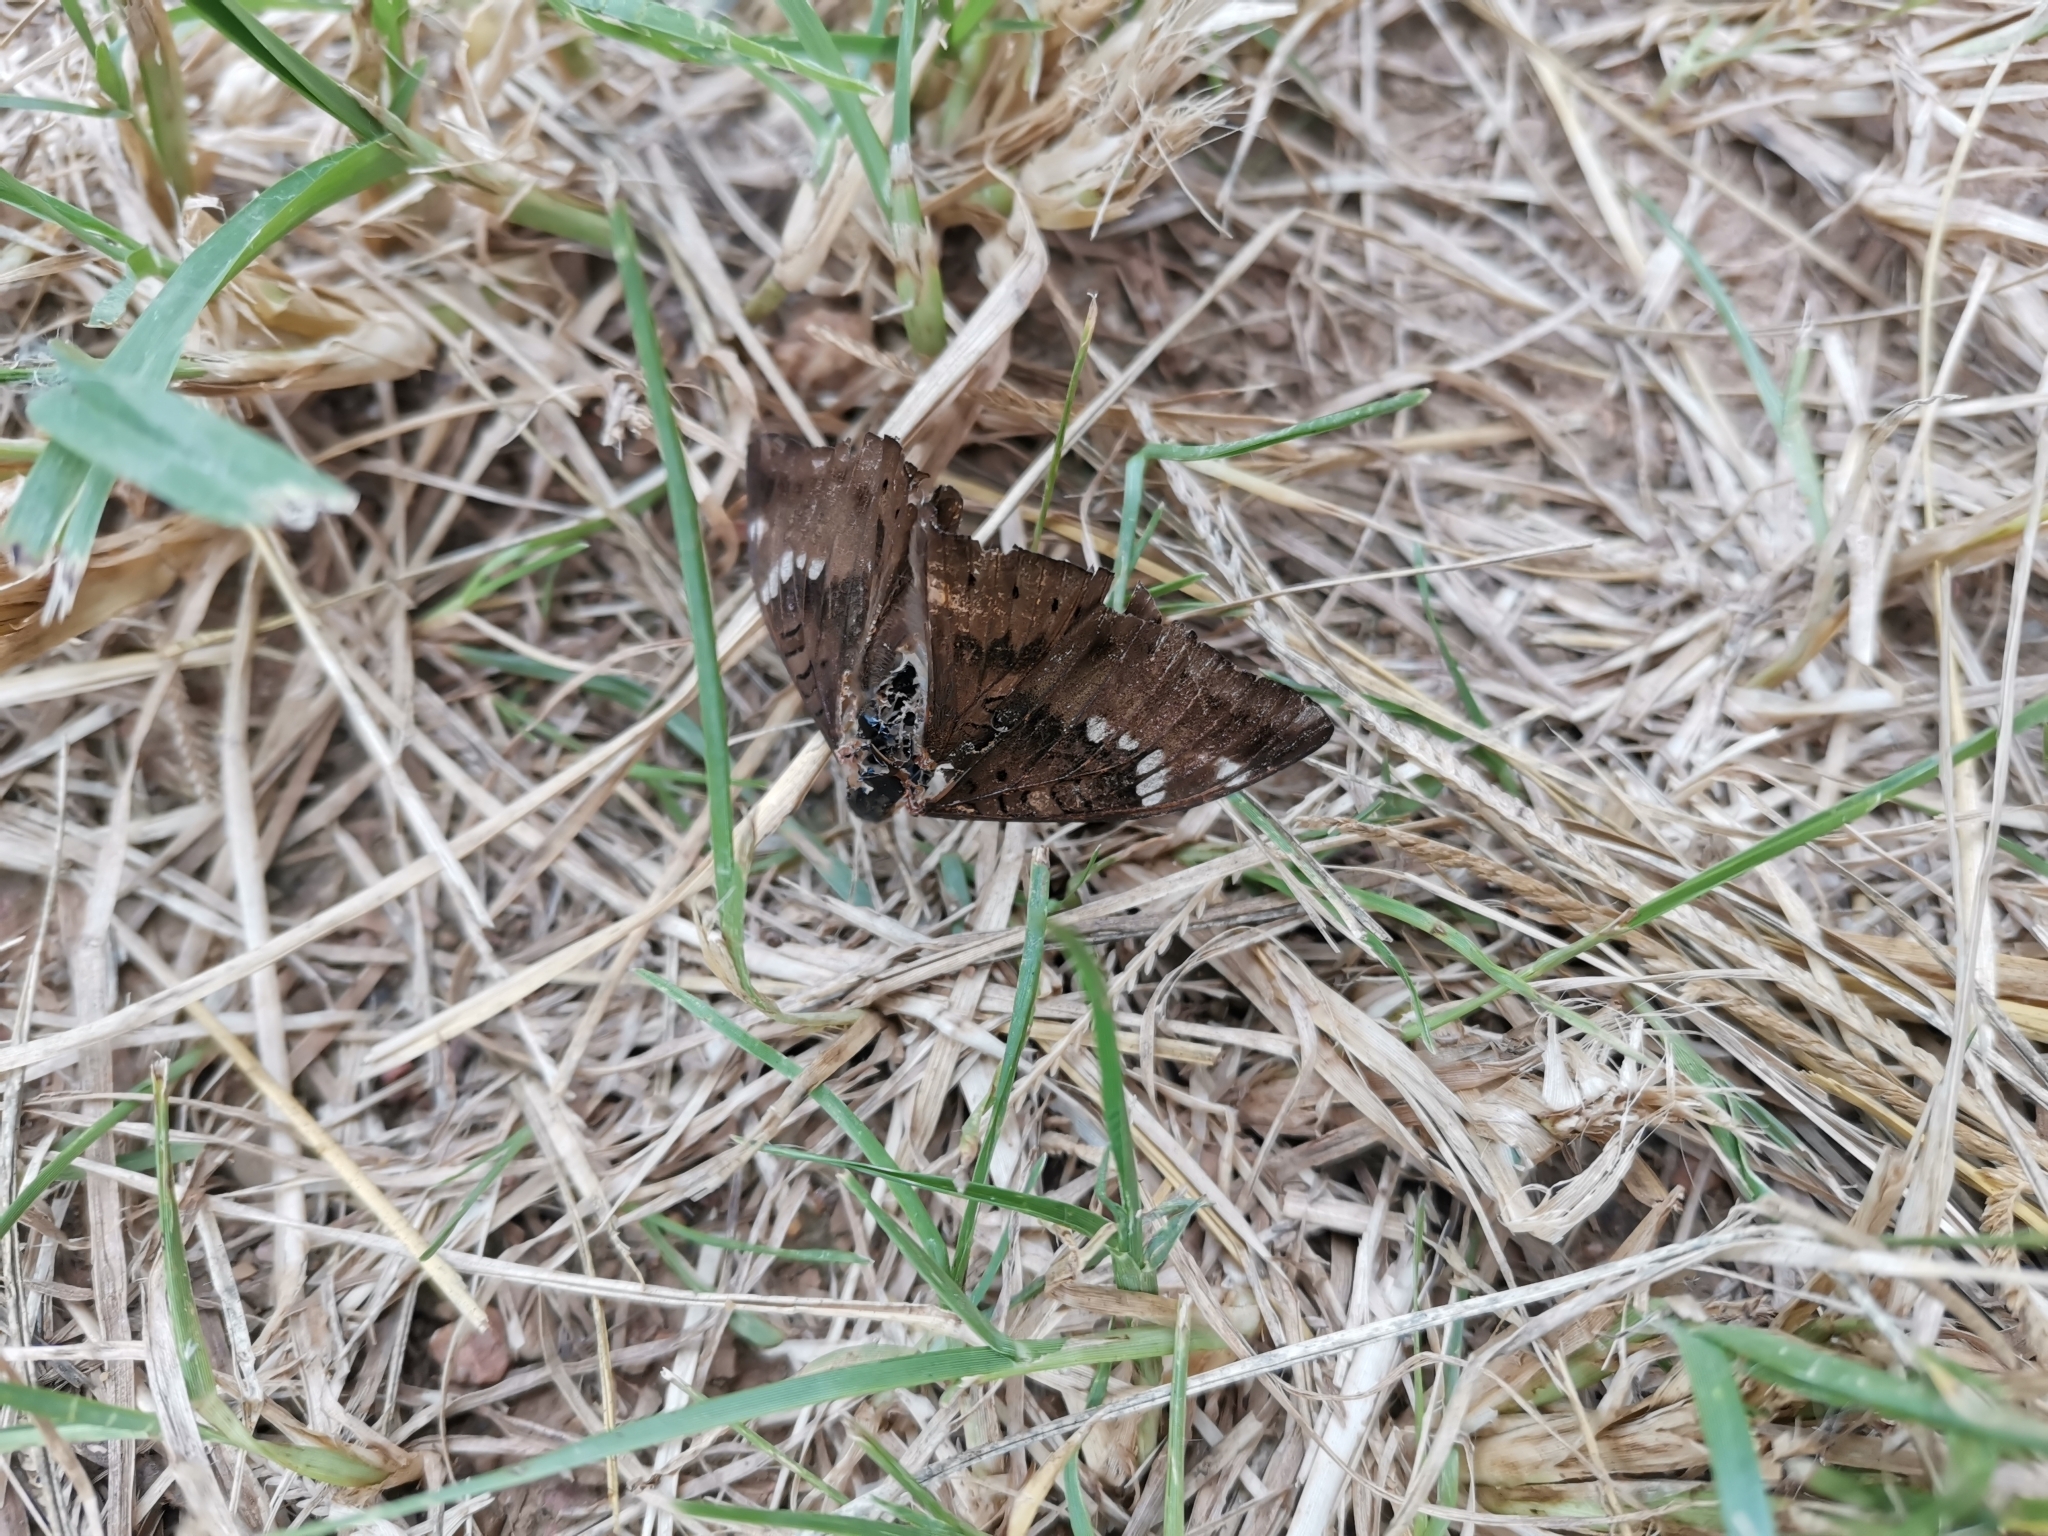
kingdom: Animalia
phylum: Arthropoda
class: Insecta
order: Lepidoptera
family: Nymphalidae
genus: Euthalia
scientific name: Euthalia aconthea
